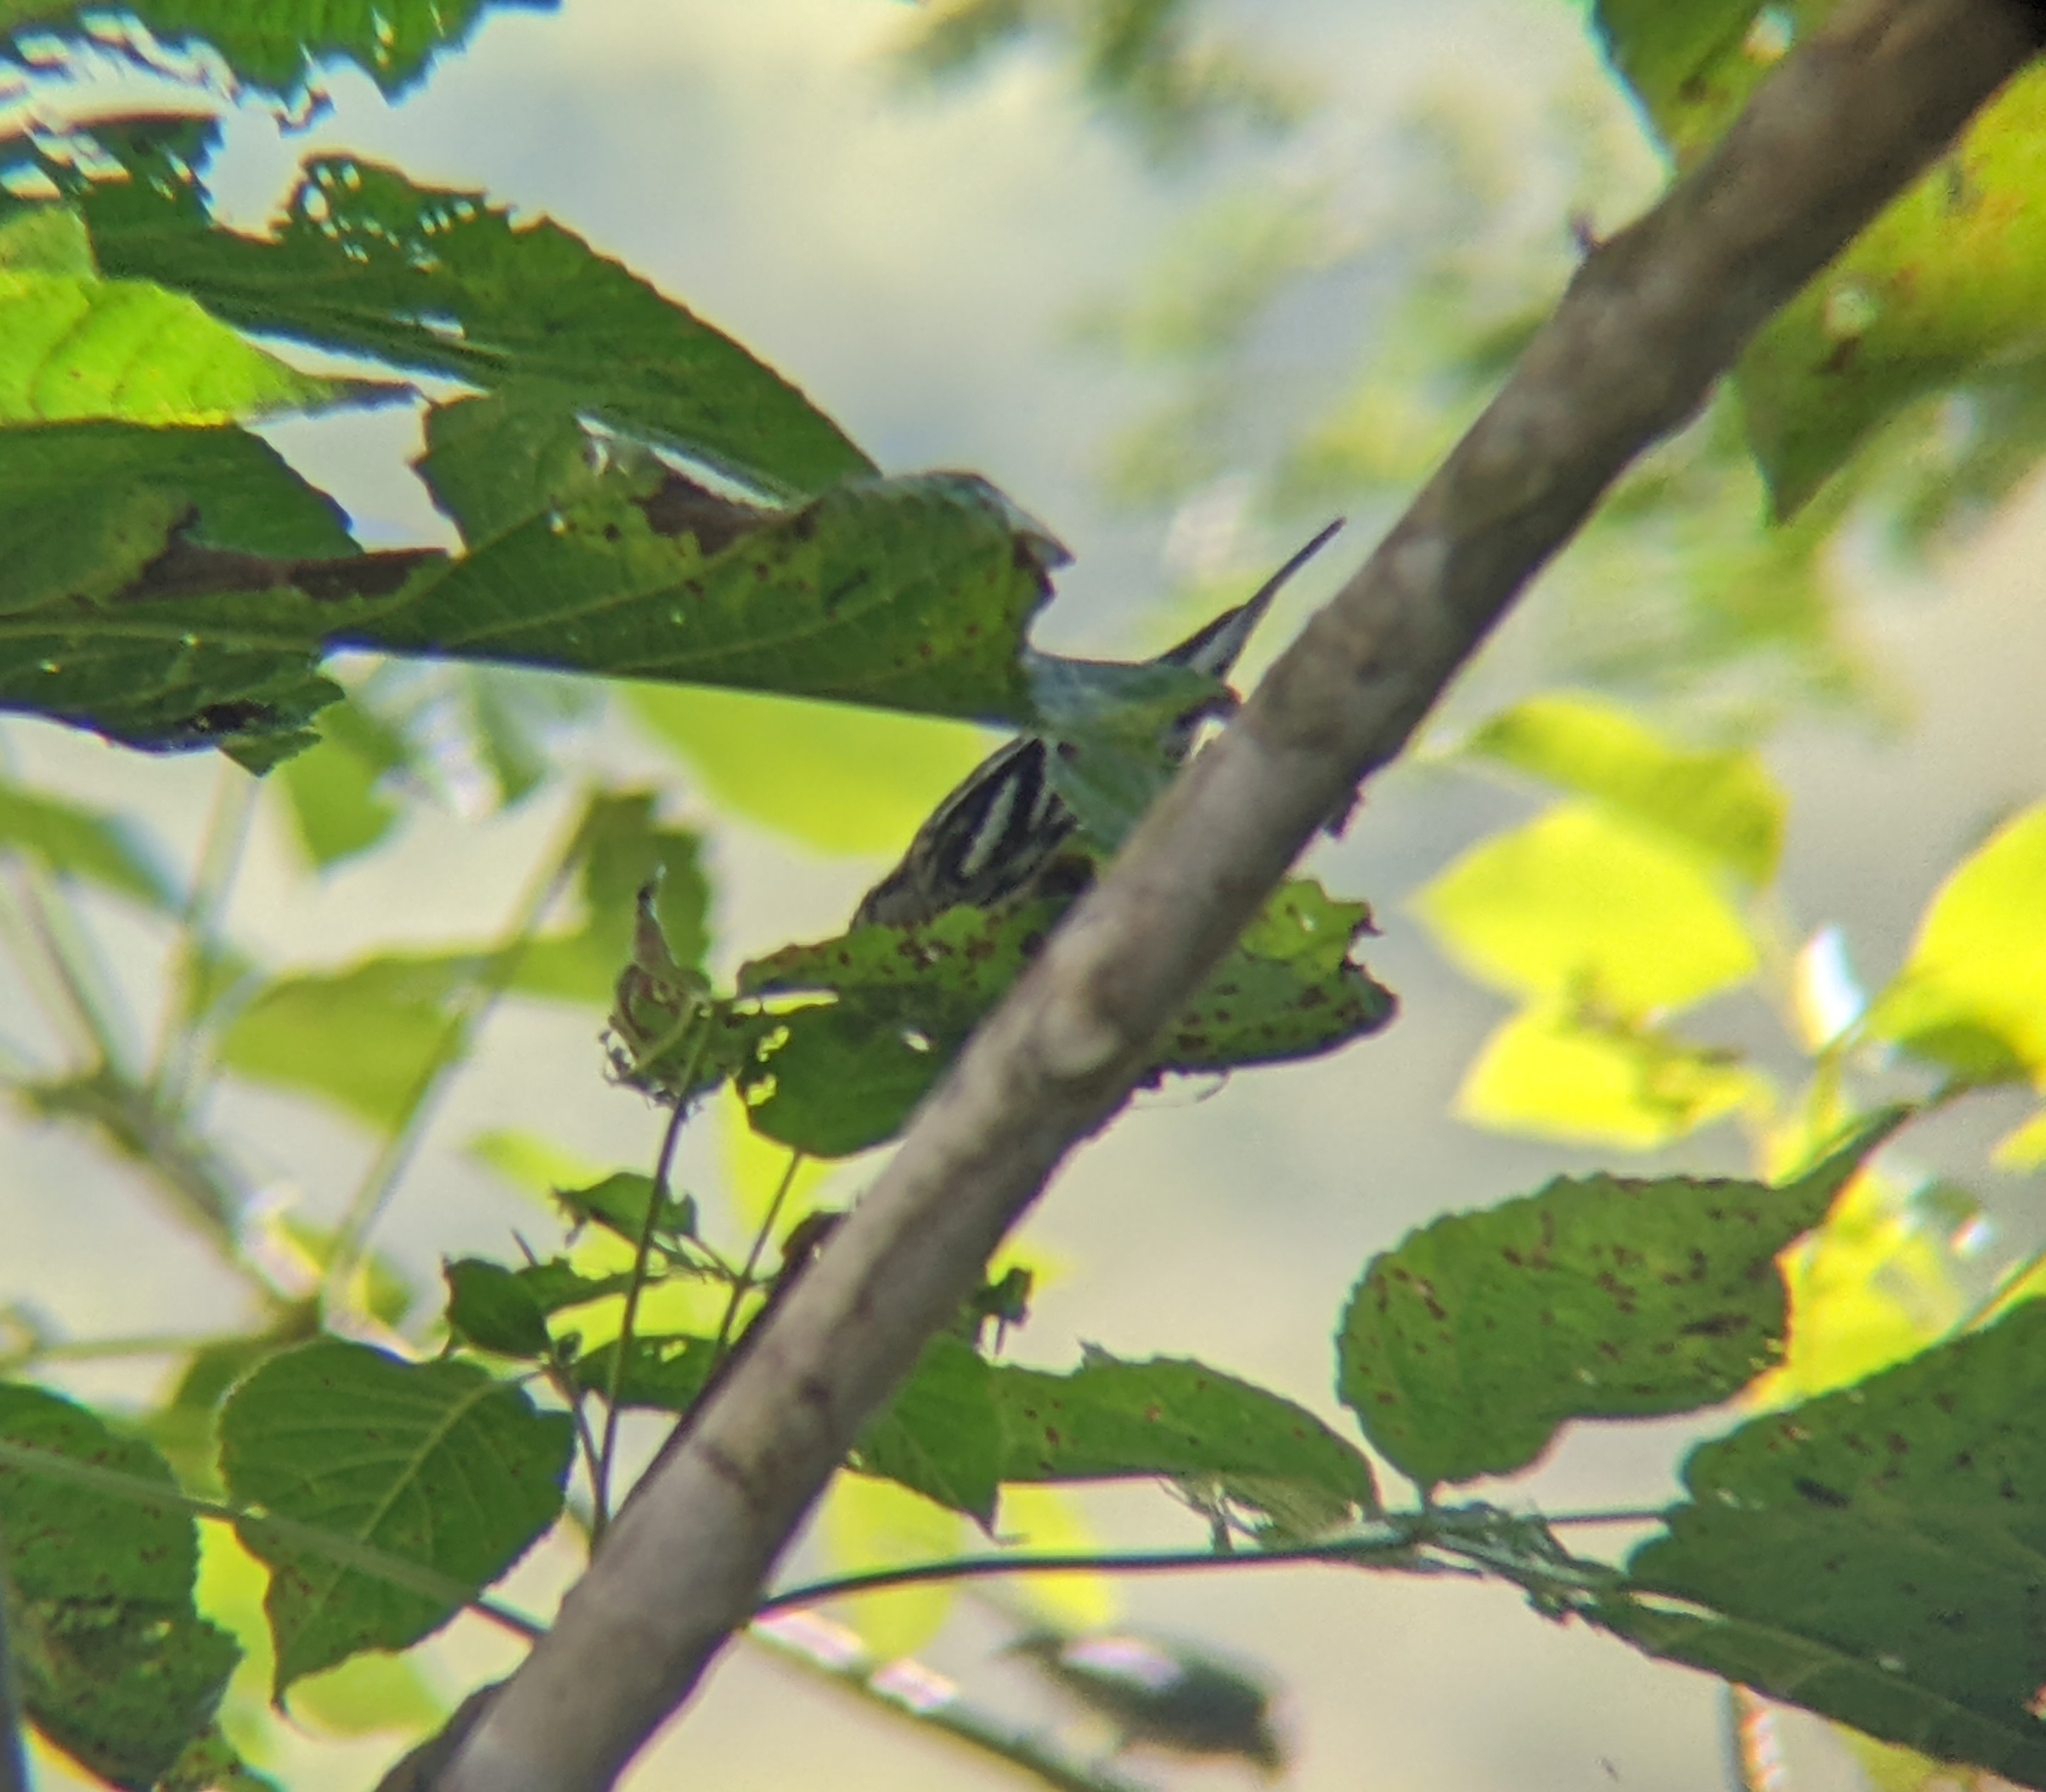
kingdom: Animalia
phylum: Chordata
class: Aves
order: Passeriformes
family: Parulidae
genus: Mniotilta
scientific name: Mniotilta varia
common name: Black-and-white warbler
